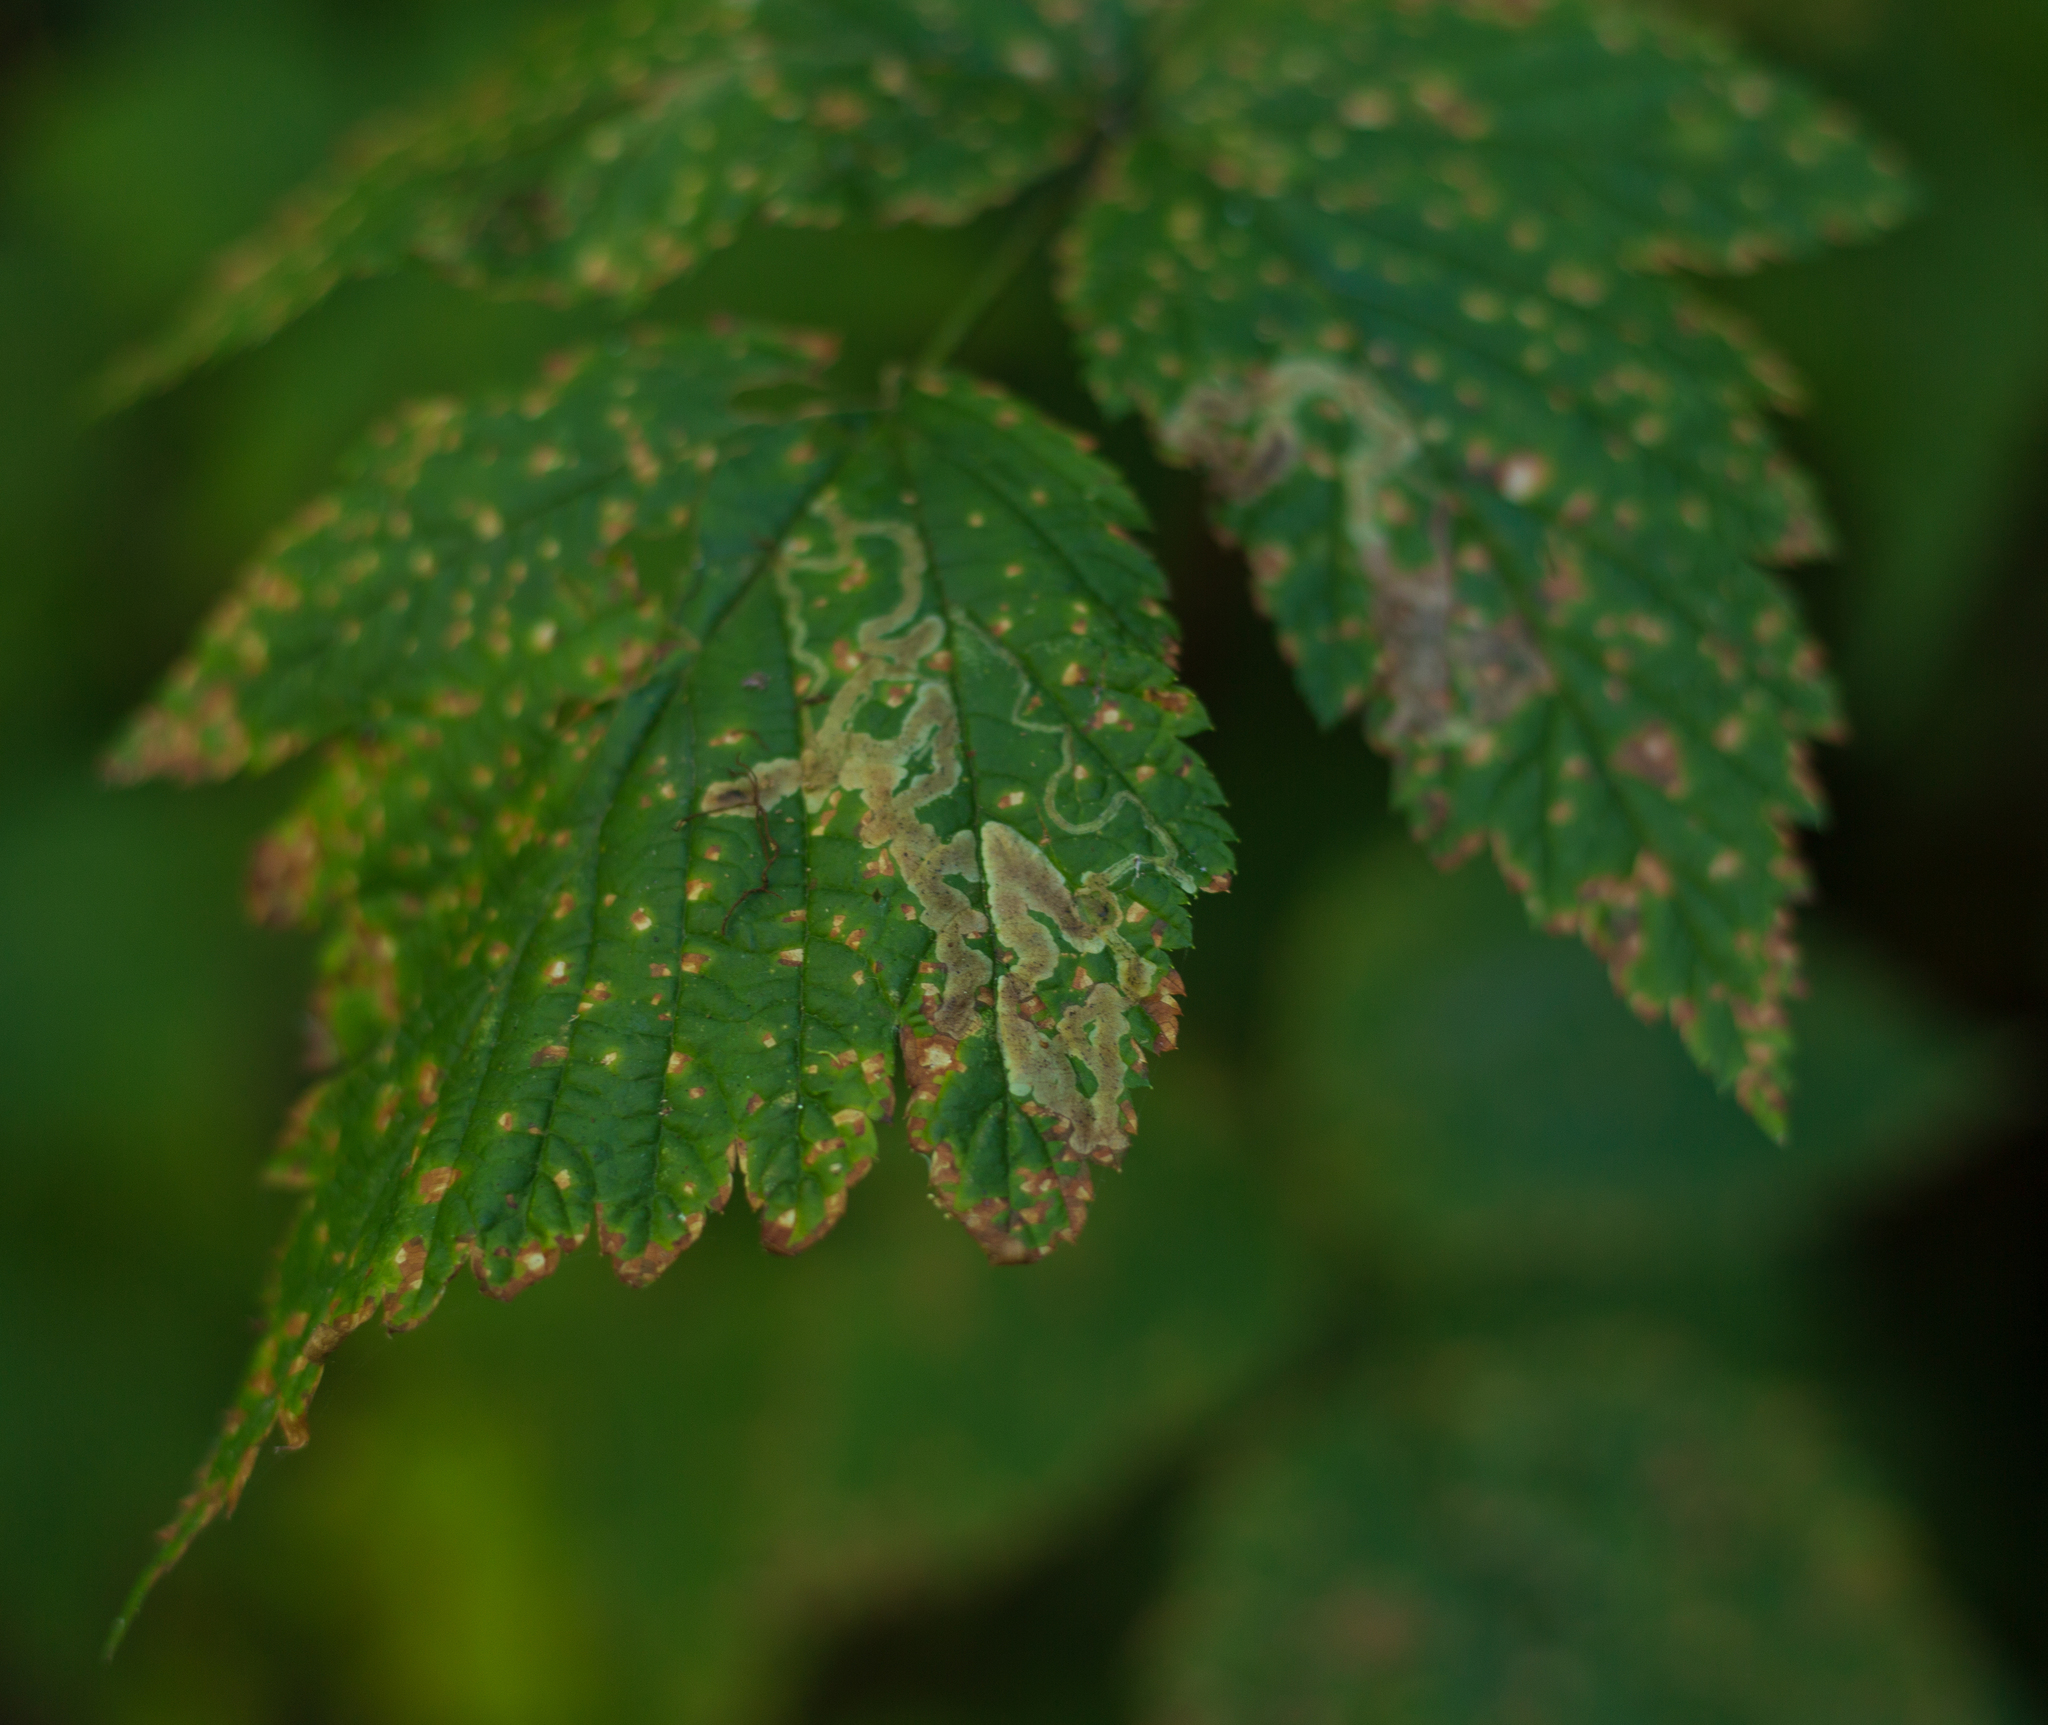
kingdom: Animalia
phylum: Arthropoda
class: Insecta
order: Diptera
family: Agromyzidae
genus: Agromyza
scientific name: Agromyza vockerothi
